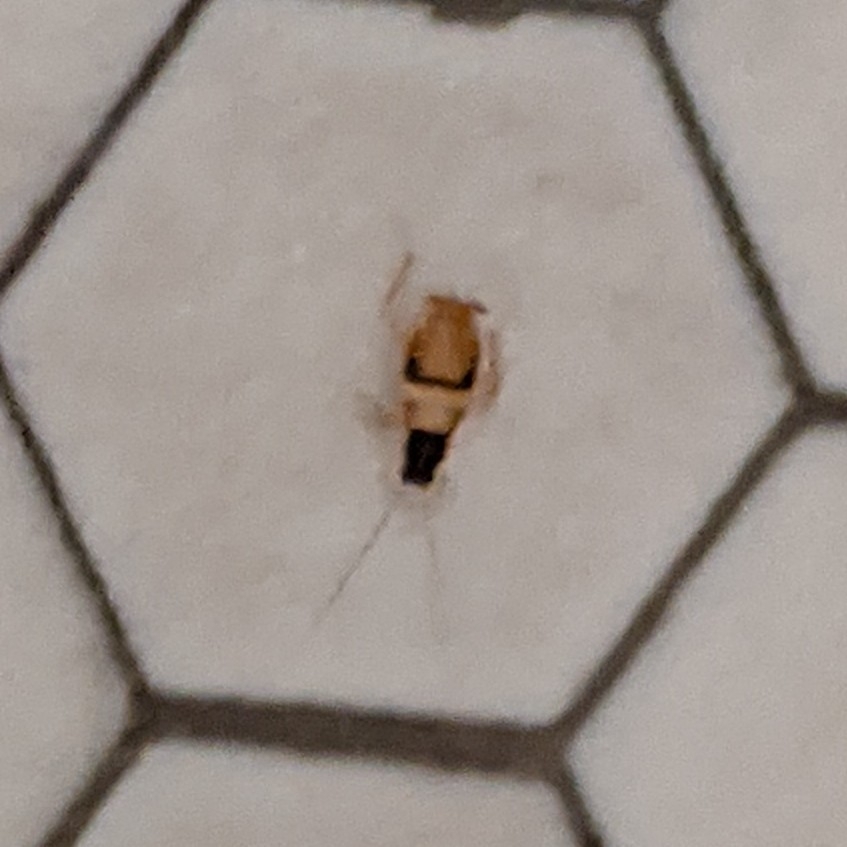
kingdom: Animalia
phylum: Arthropoda
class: Insecta
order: Blattodea
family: Ectobiidae
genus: Supella
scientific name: Supella longipalpa
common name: Brown-banded cockroach
